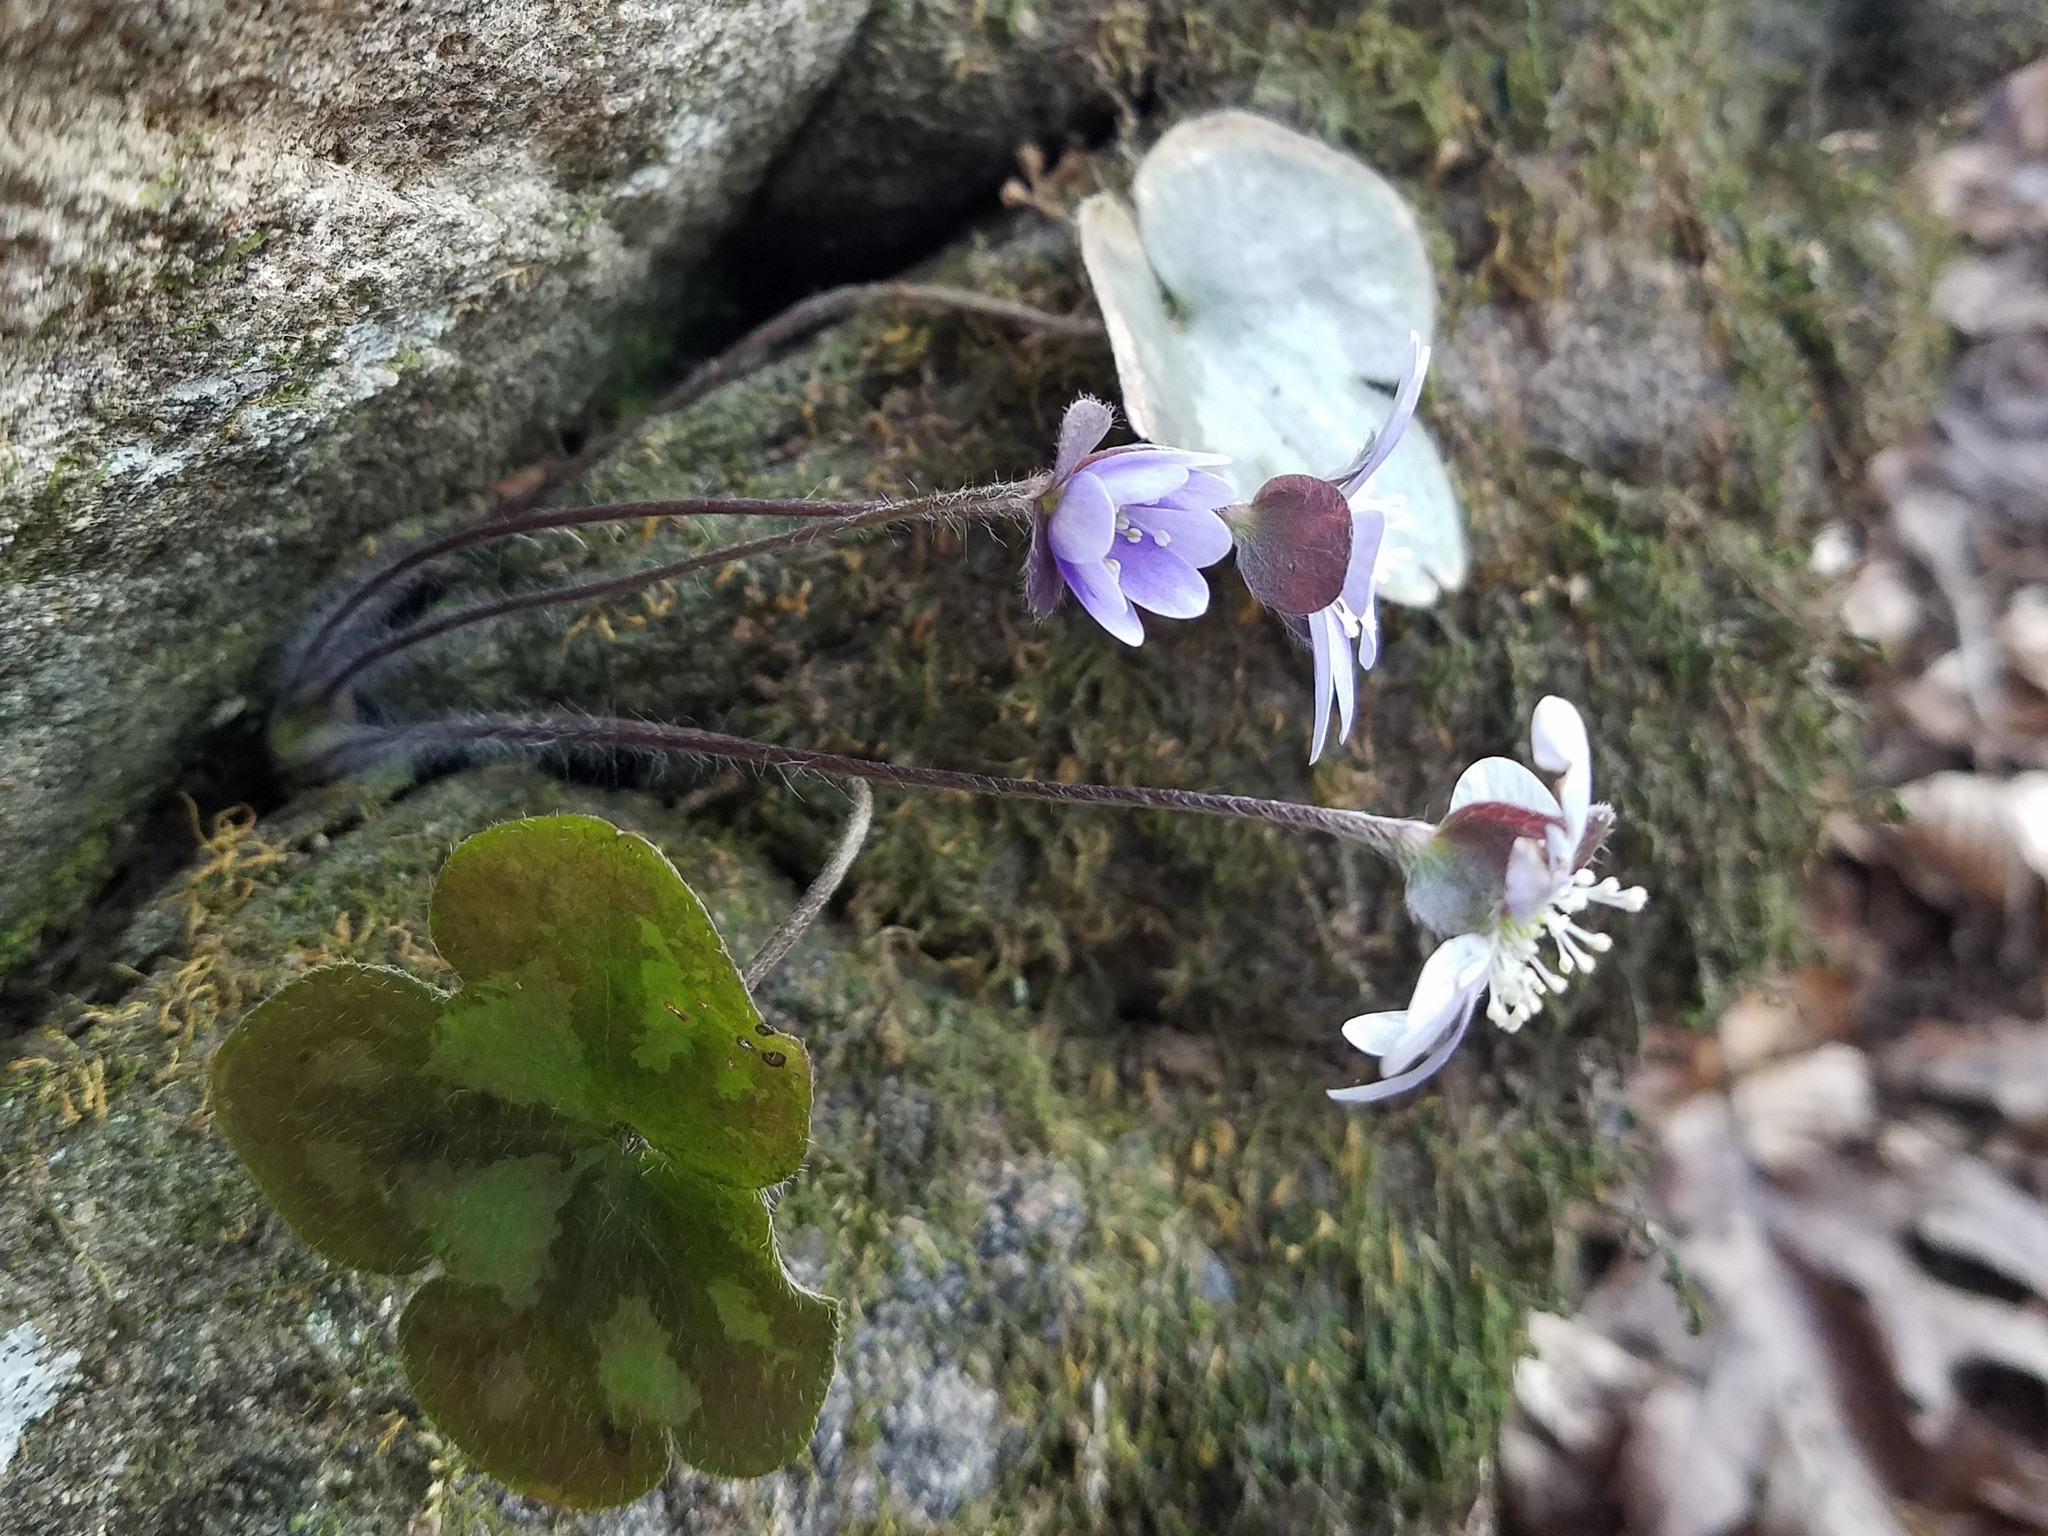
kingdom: Plantae
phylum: Tracheophyta
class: Magnoliopsida
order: Ranunculales
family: Ranunculaceae
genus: Hepatica
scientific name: Hepatica americana
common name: American hepatica
